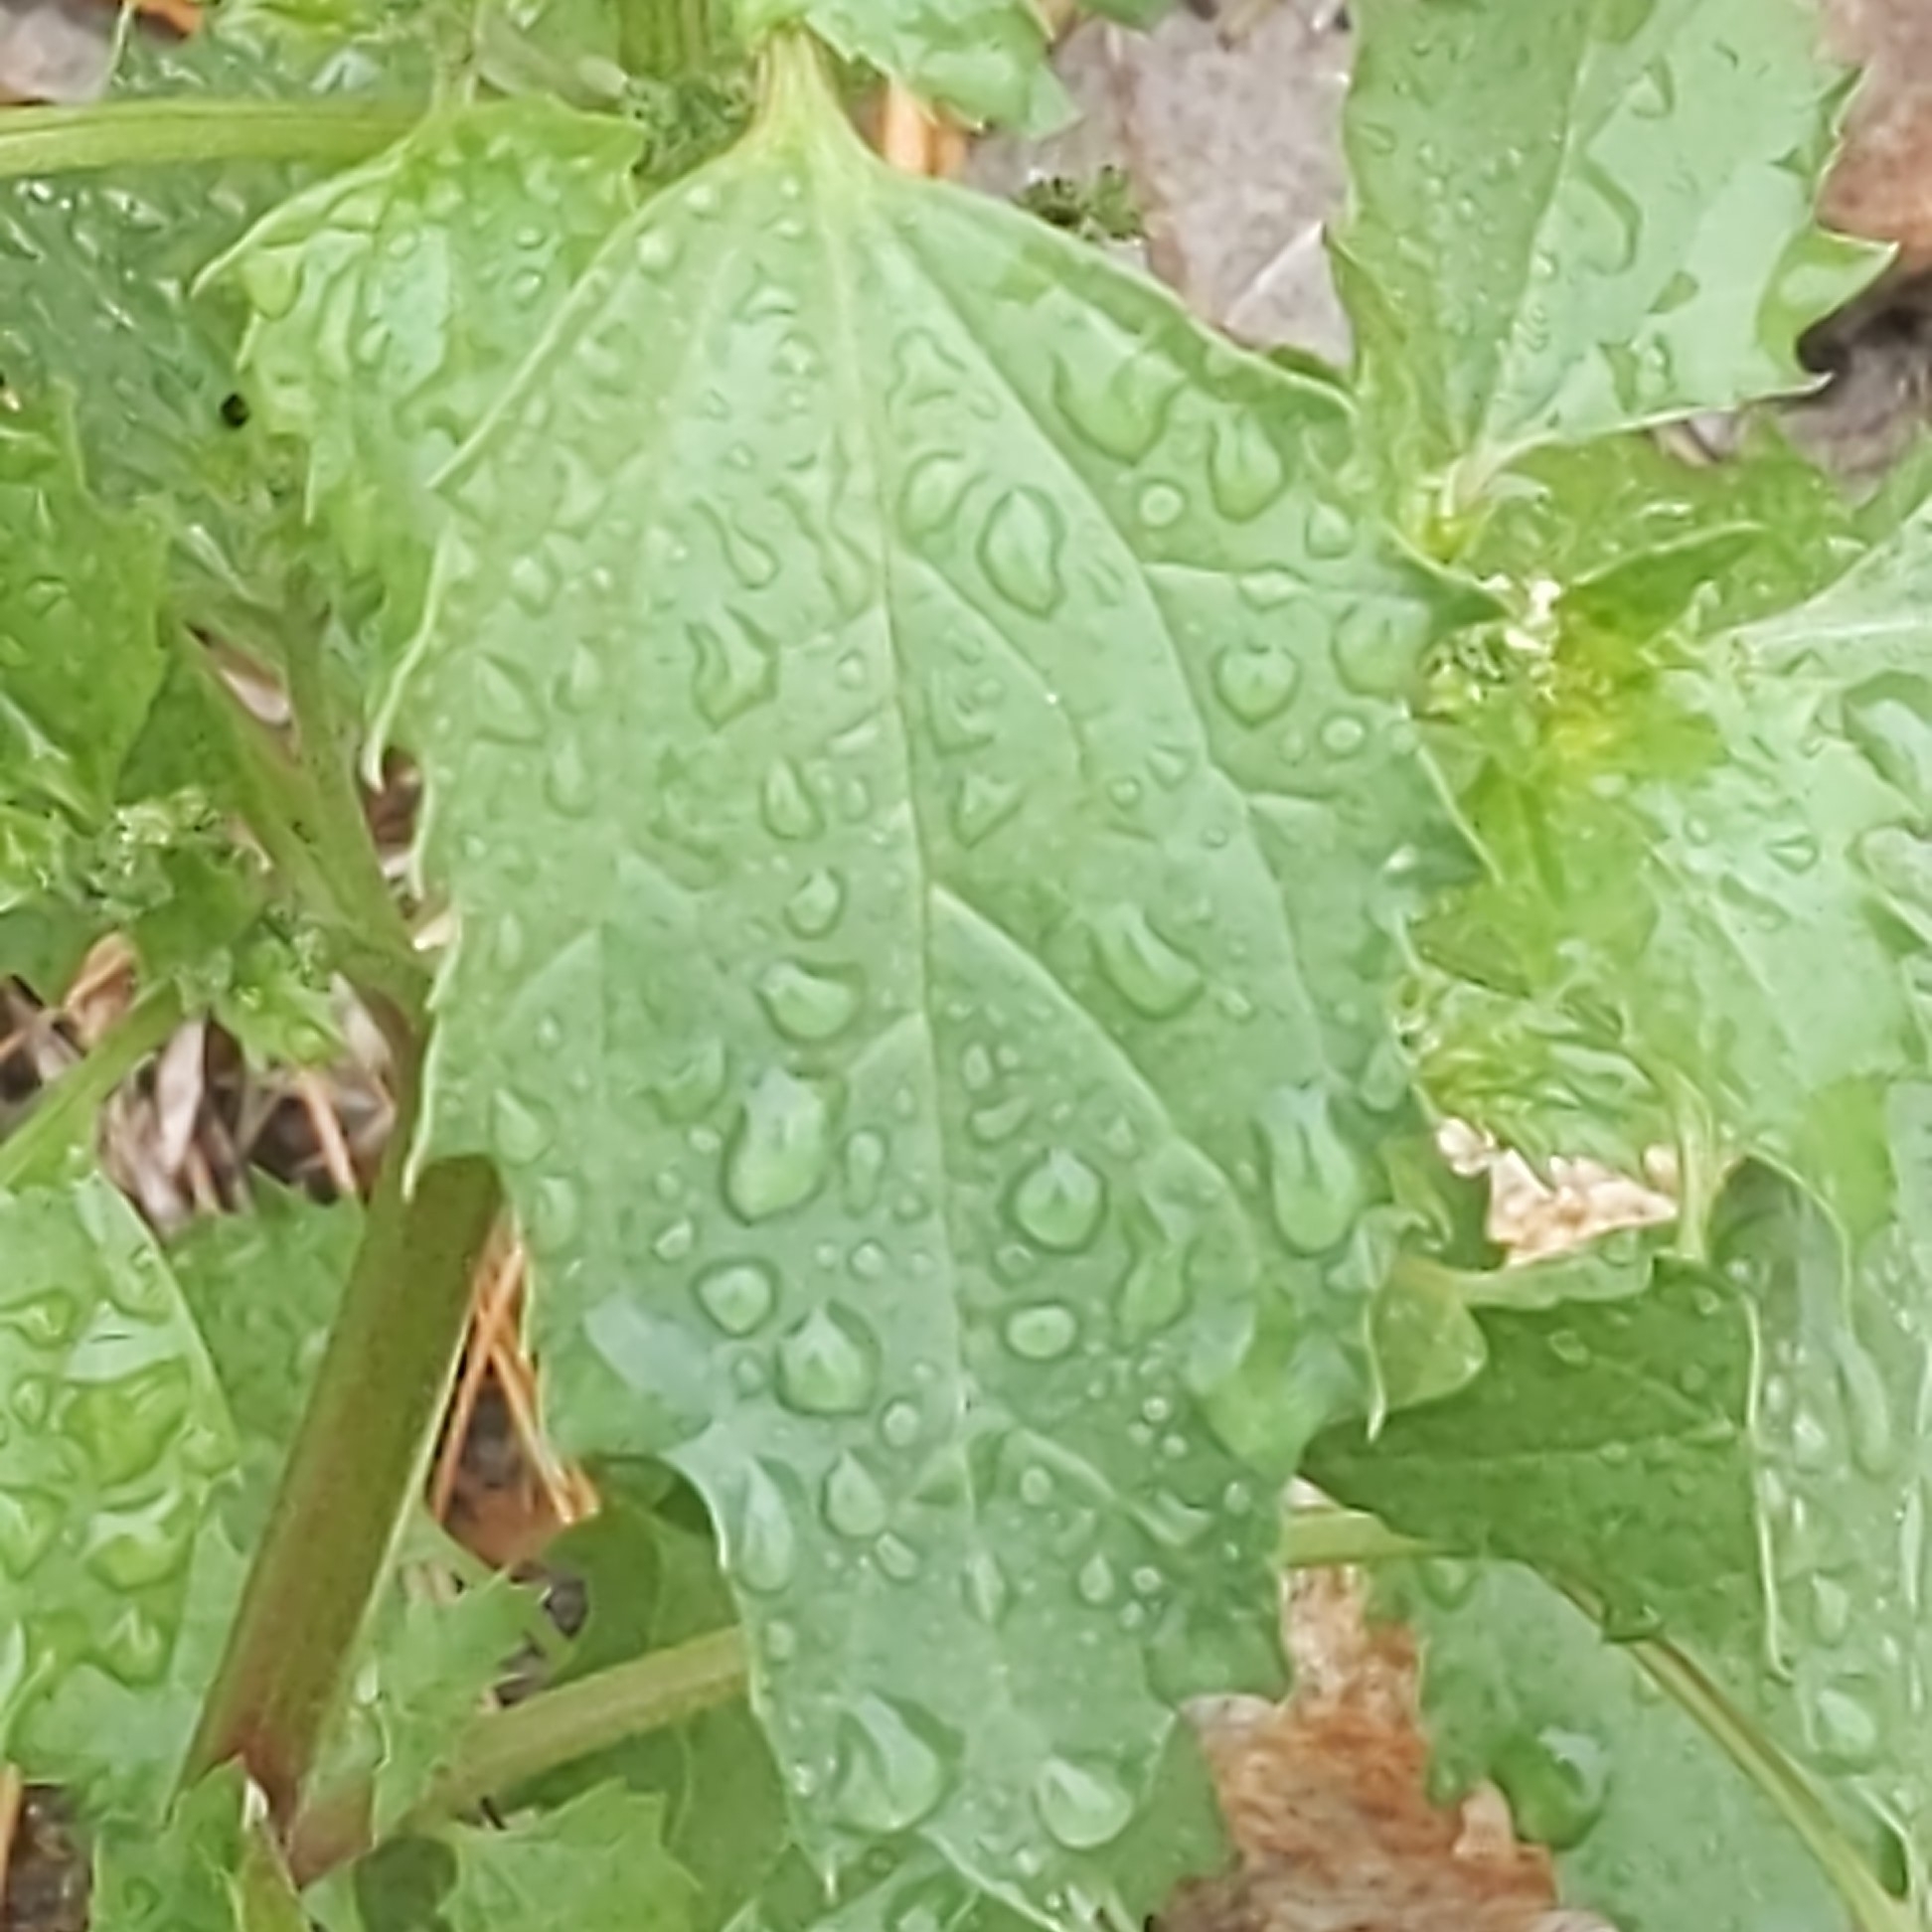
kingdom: Plantae
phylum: Tracheophyta
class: Magnoliopsida
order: Caryophyllales
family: Amaranthaceae
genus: Chenopodiastrum
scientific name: Chenopodiastrum murale
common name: Sowbane
